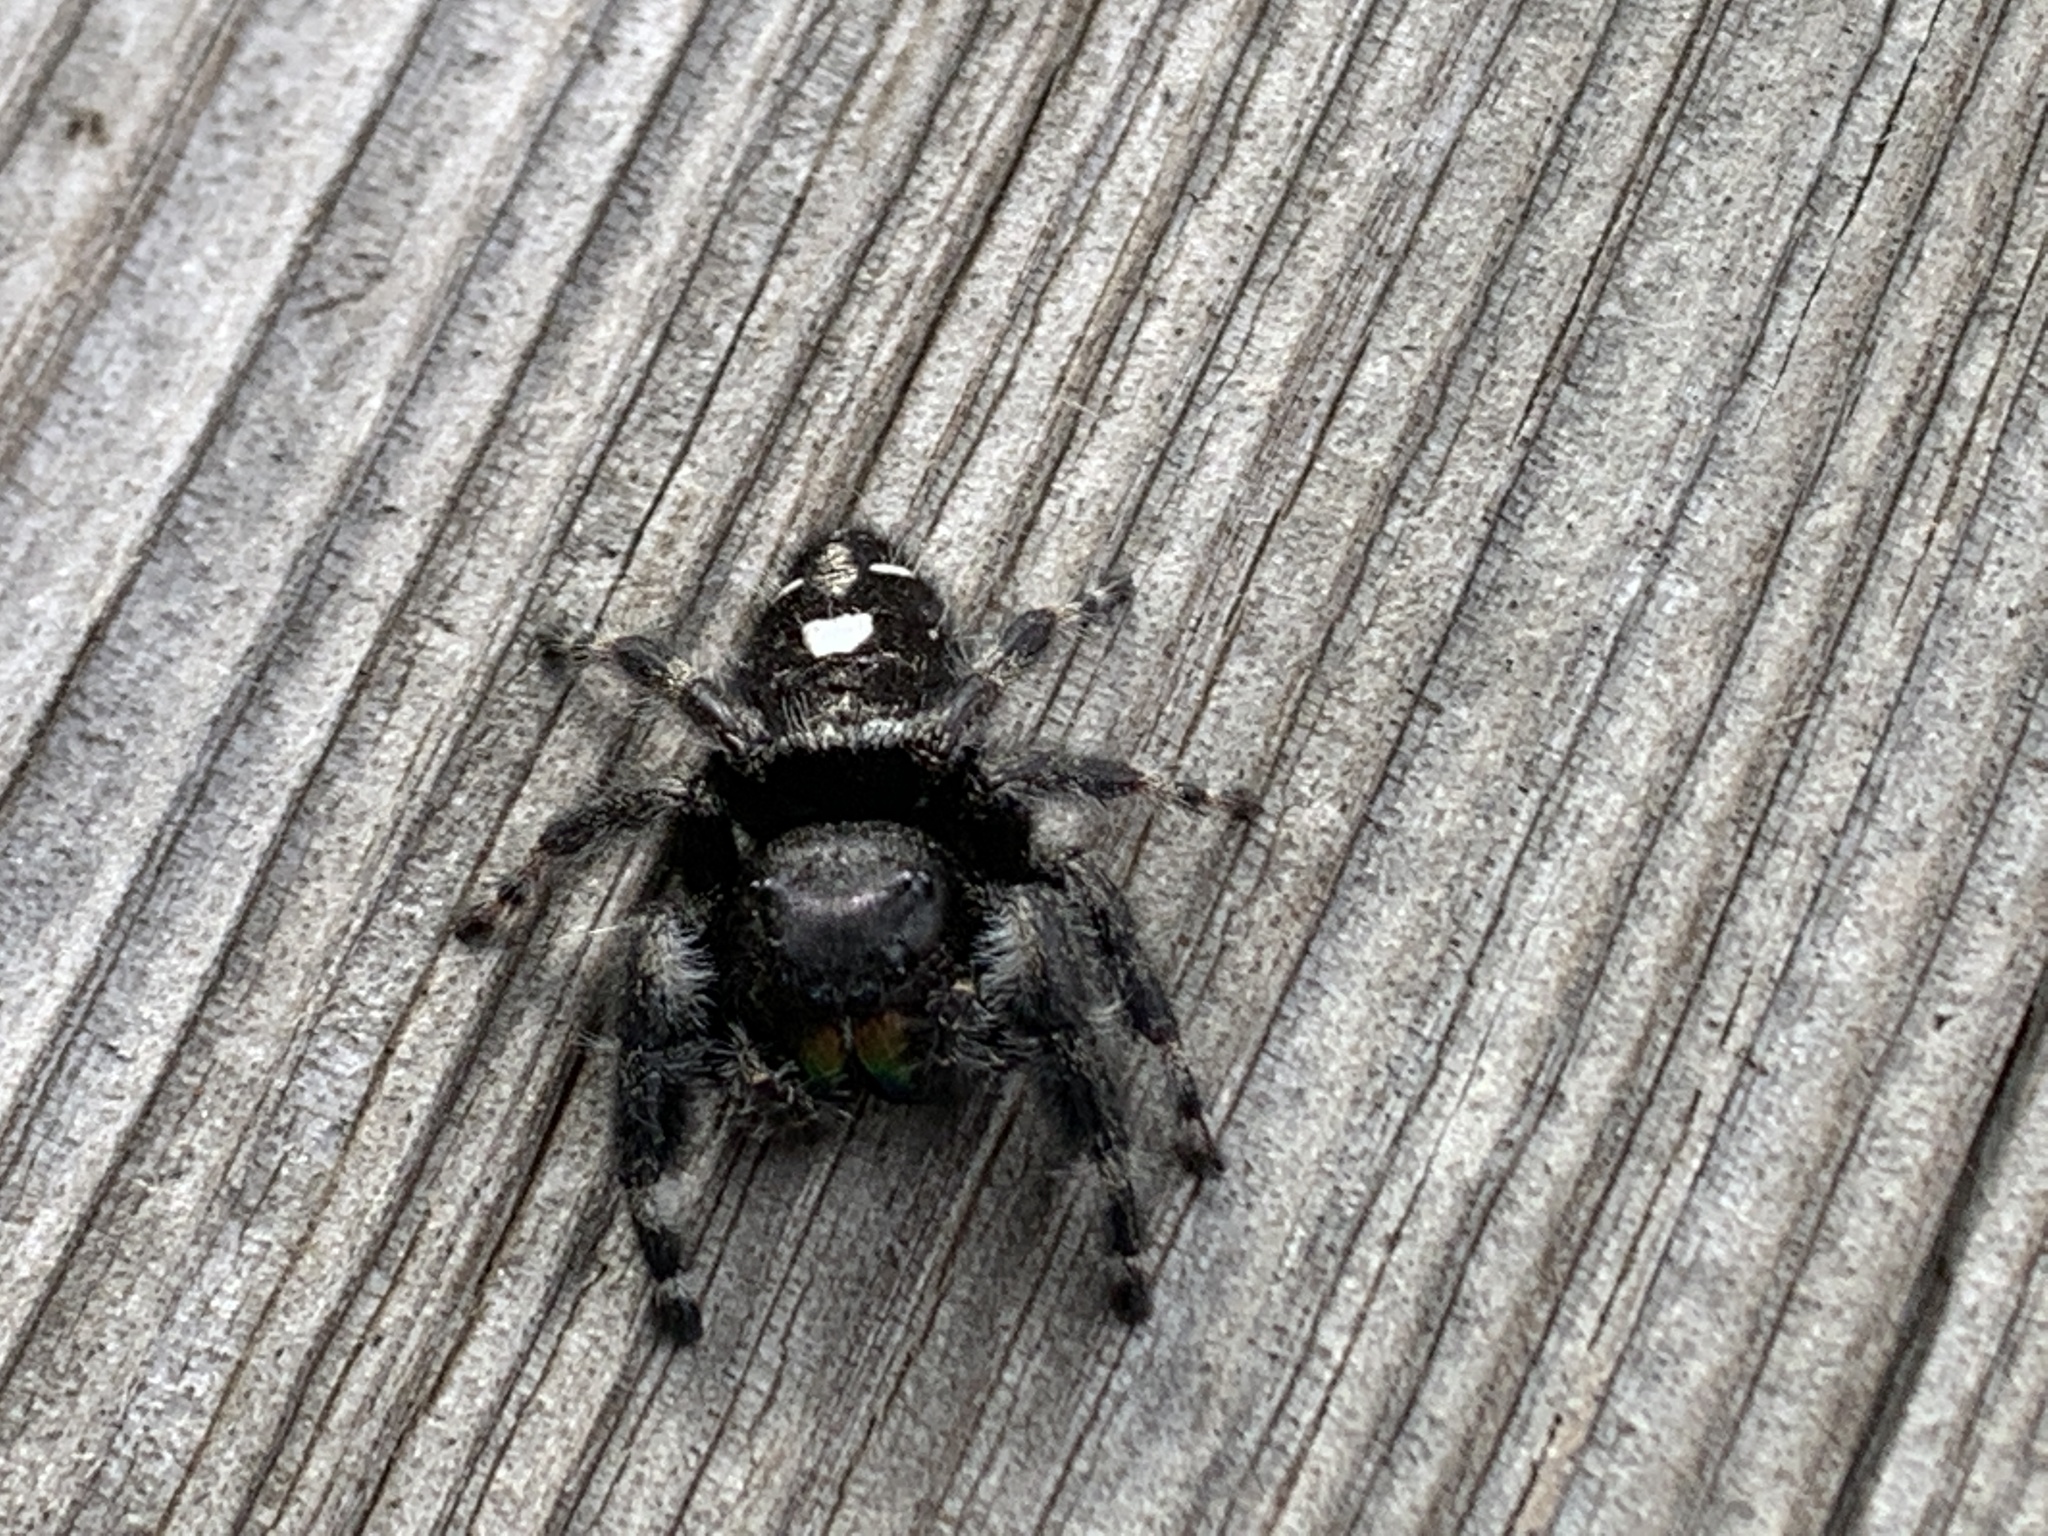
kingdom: Animalia
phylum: Arthropoda
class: Arachnida
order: Araneae
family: Salticidae
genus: Phidippus
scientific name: Phidippus audax
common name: Bold jumper
